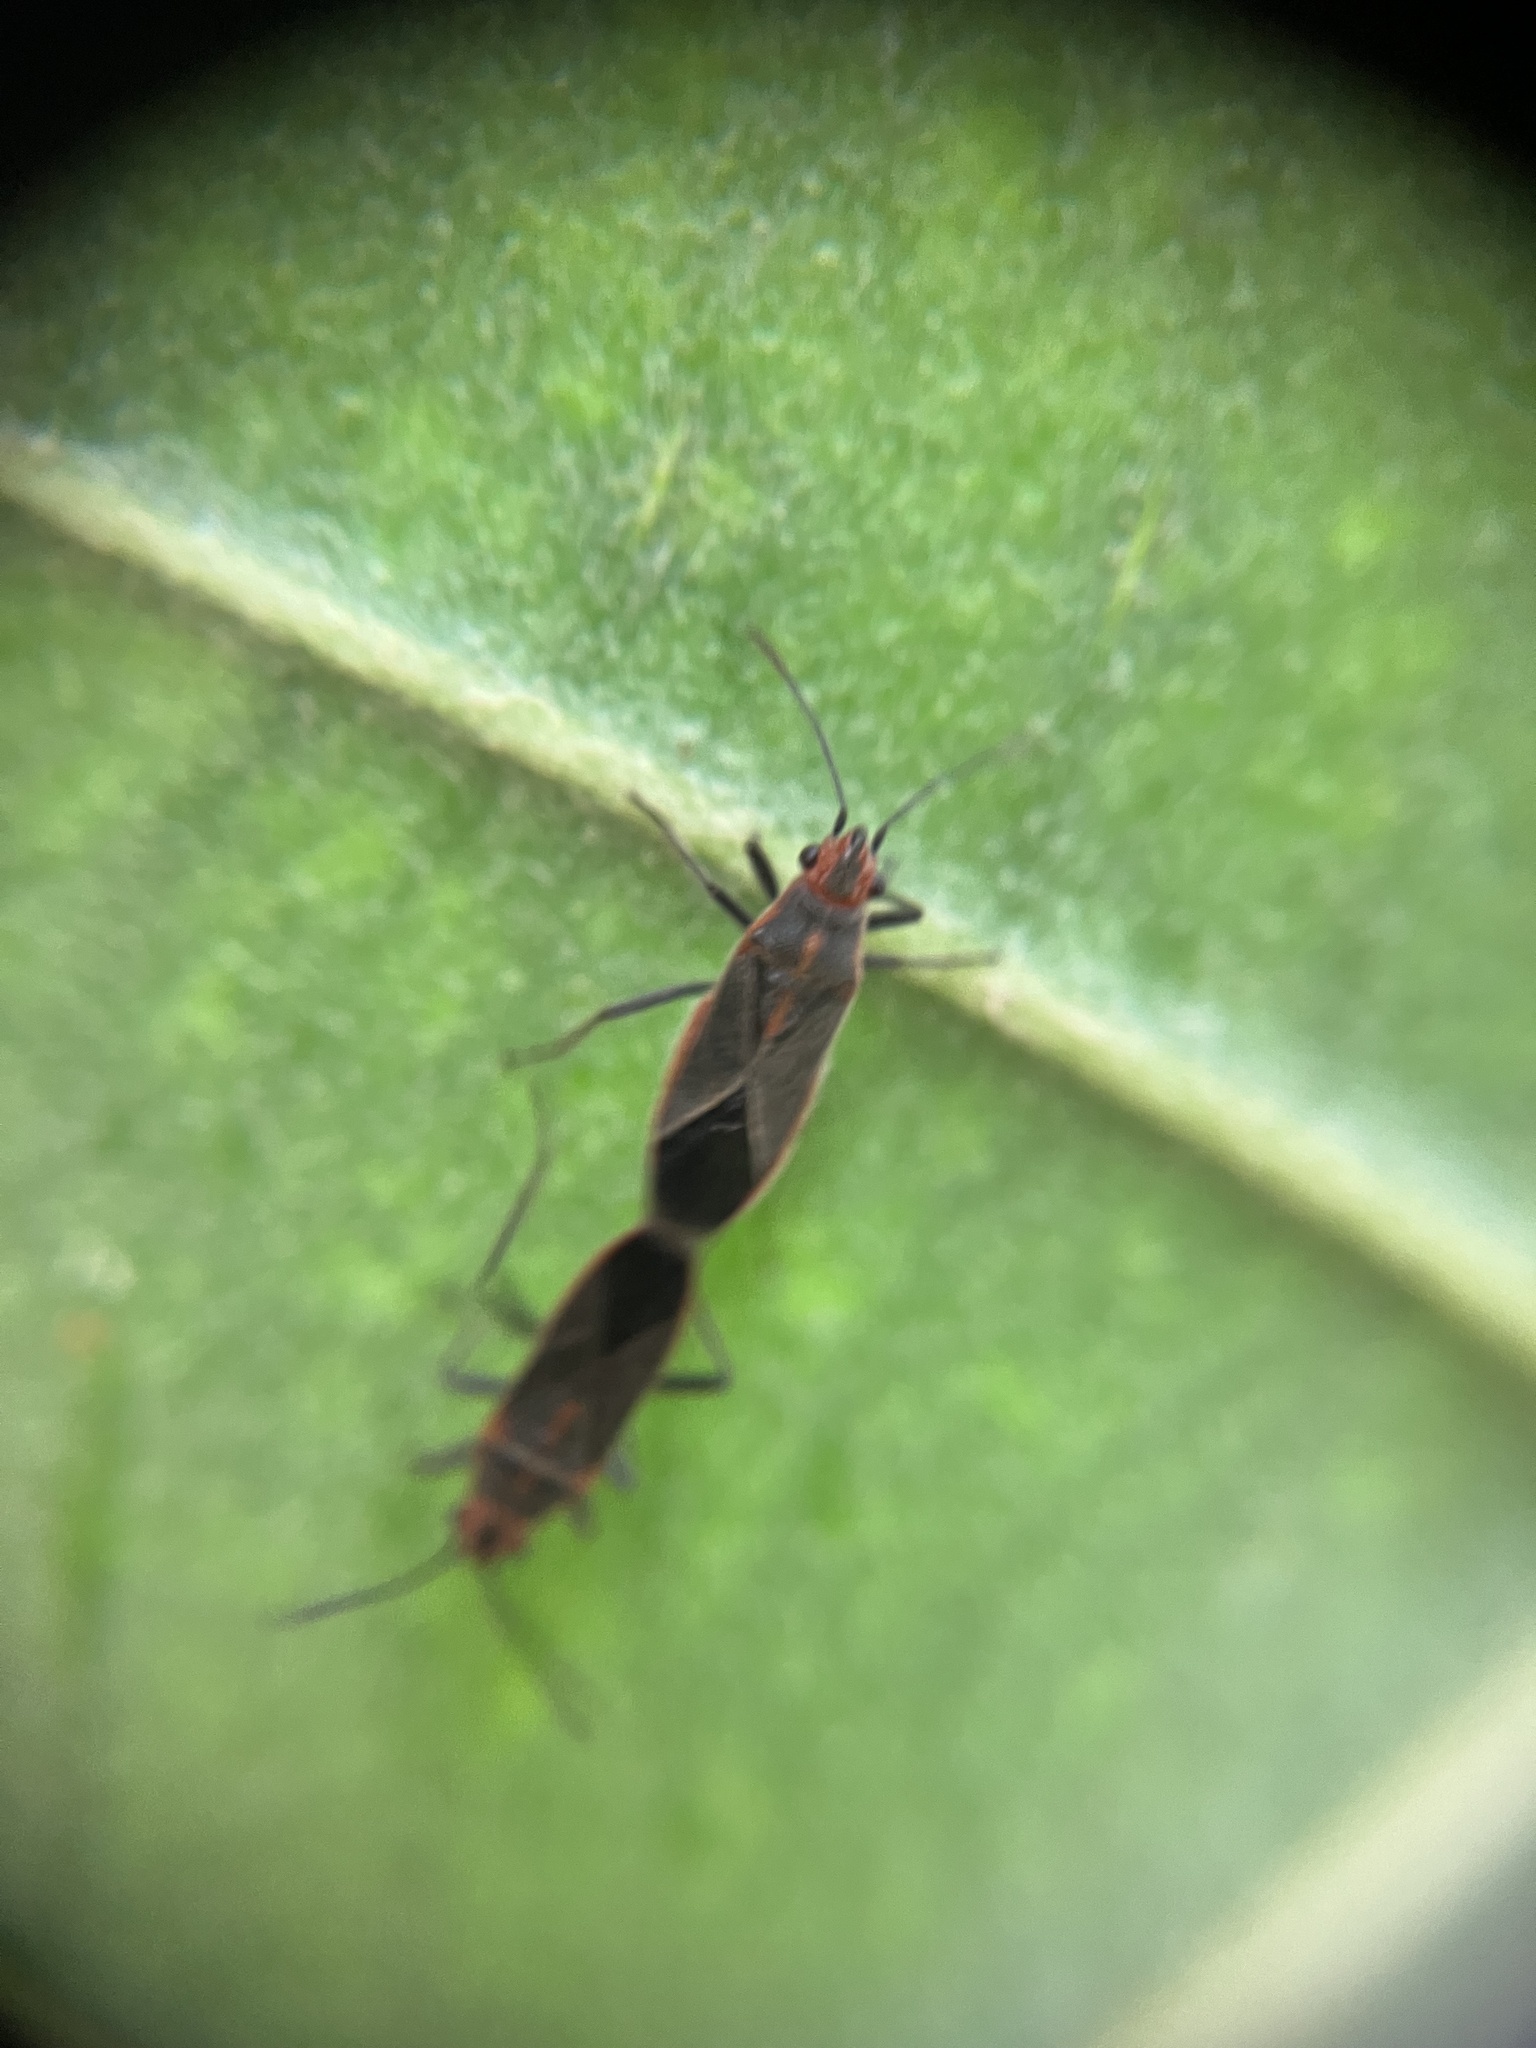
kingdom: Animalia
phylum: Arthropoda
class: Insecta
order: Hemiptera
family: Lygaeidae
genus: Arocatus
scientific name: Arocatus sericans
